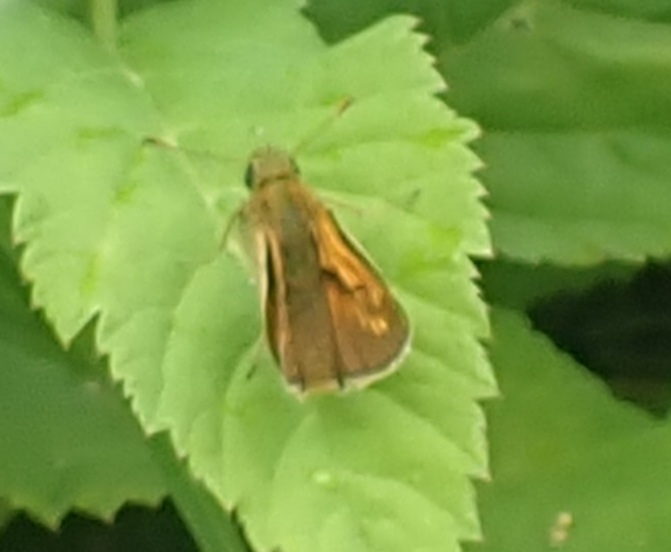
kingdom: Animalia
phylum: Arthropoda
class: Insecta
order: Lepidoptera
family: Hesperiidae
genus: Ochlodes
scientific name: Ochlodes venata
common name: Large skipper
